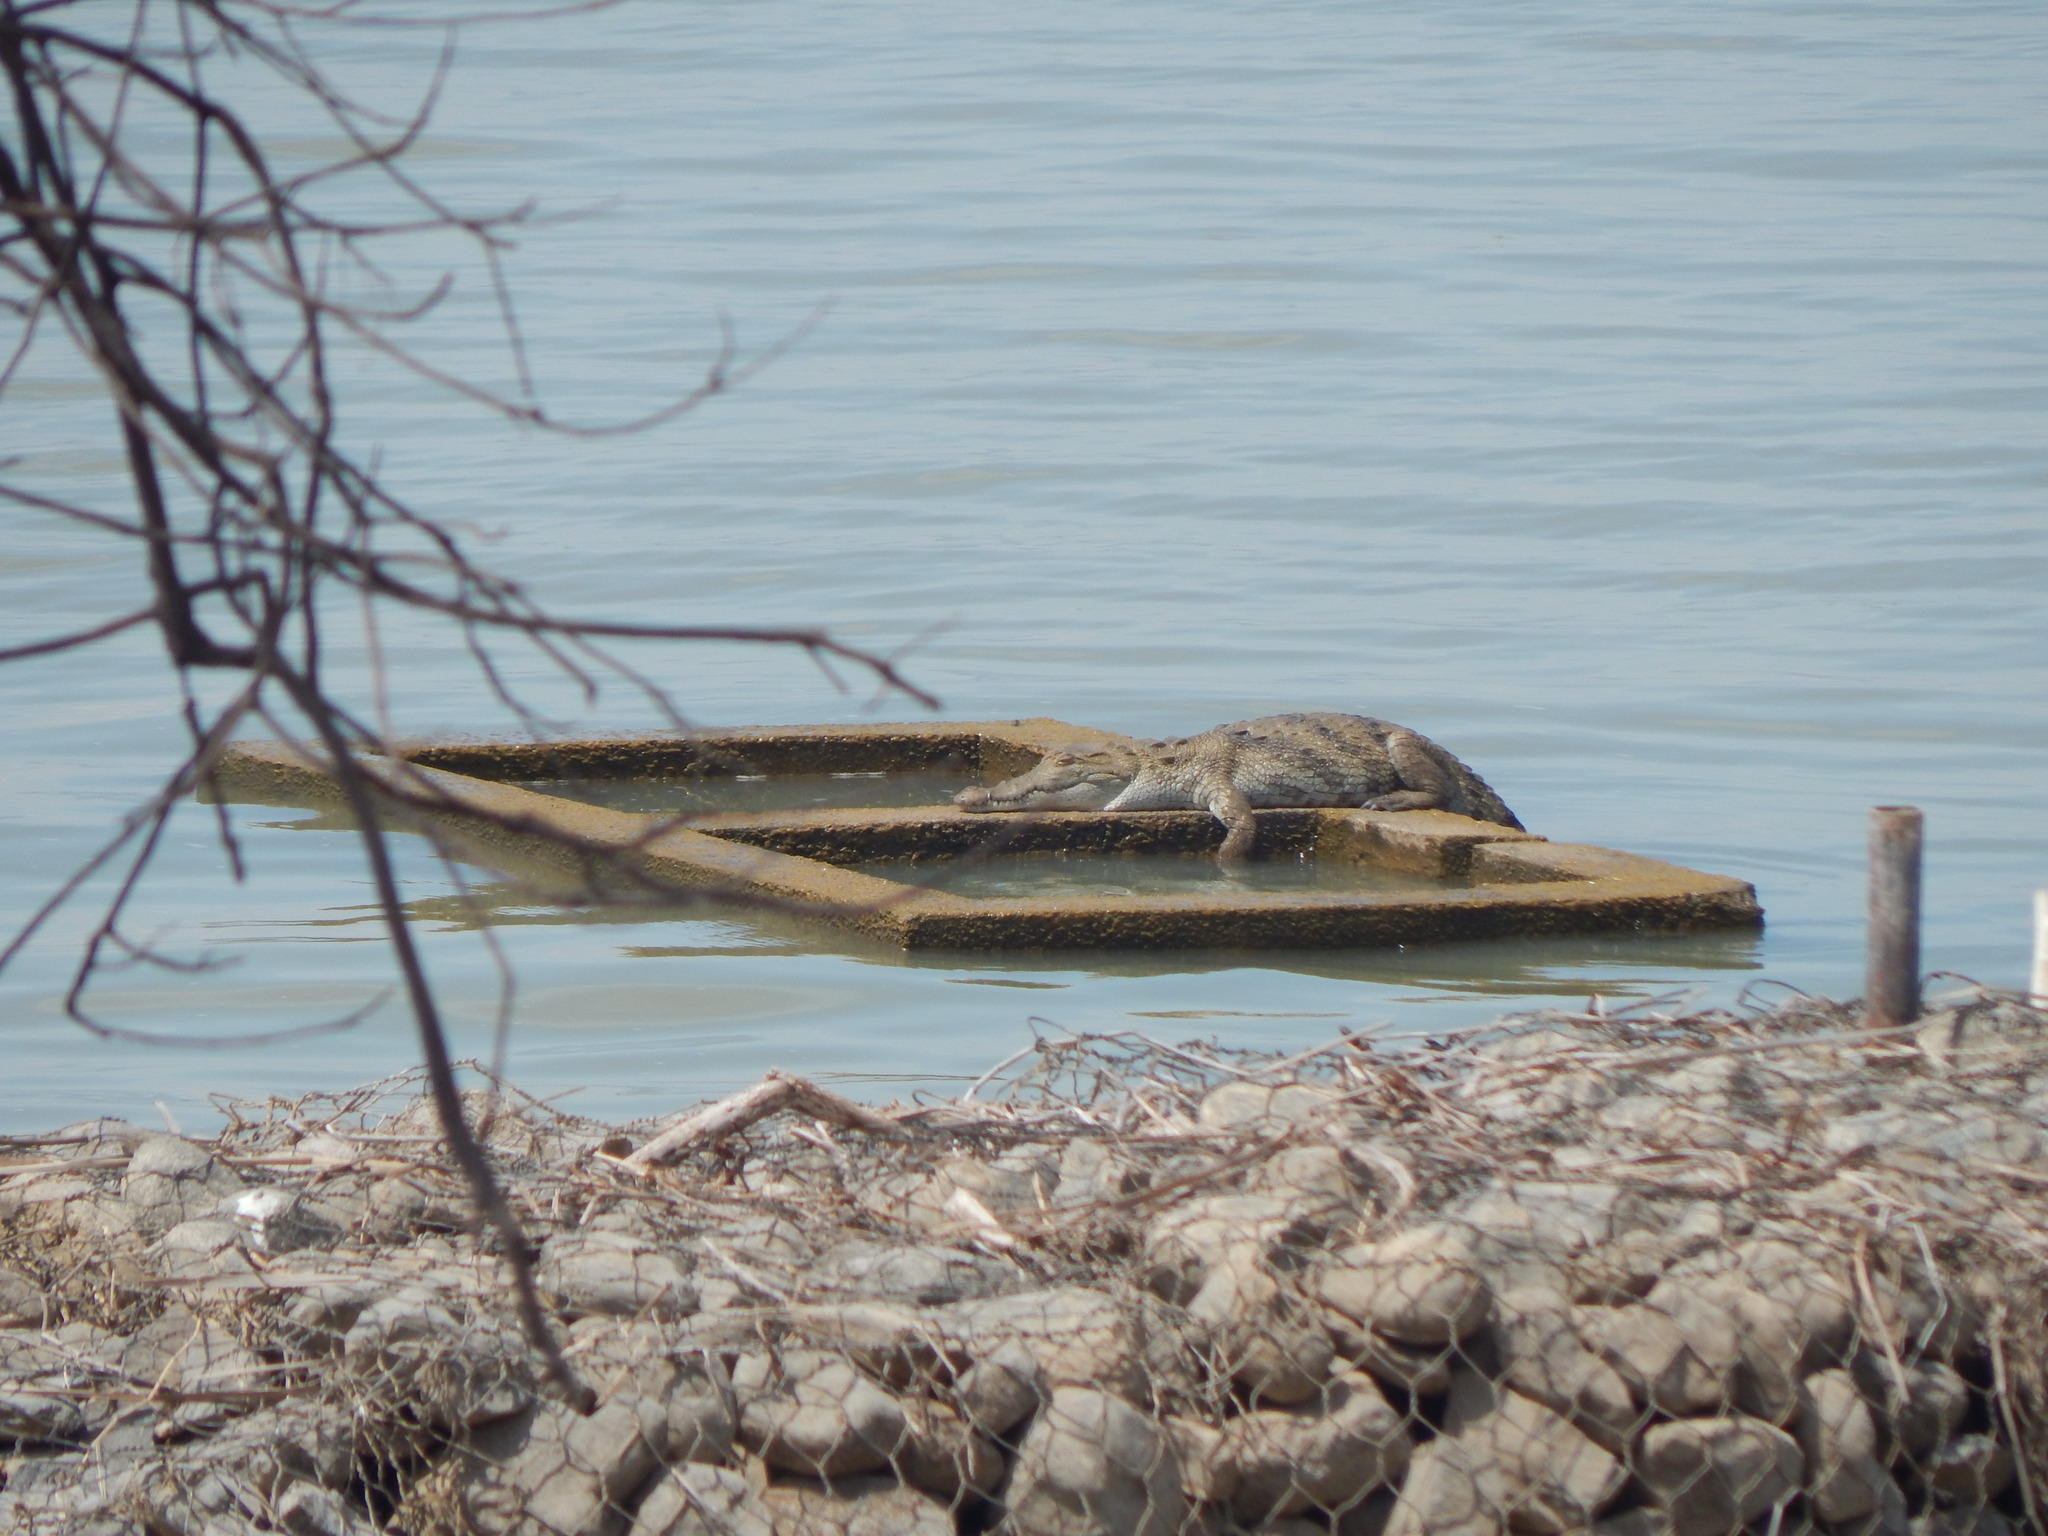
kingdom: Animalia
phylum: Chordata
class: Crocodylia
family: Crocodylidae
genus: Crocodylus
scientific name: Crocodylus niloticus
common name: Nile crocodile
